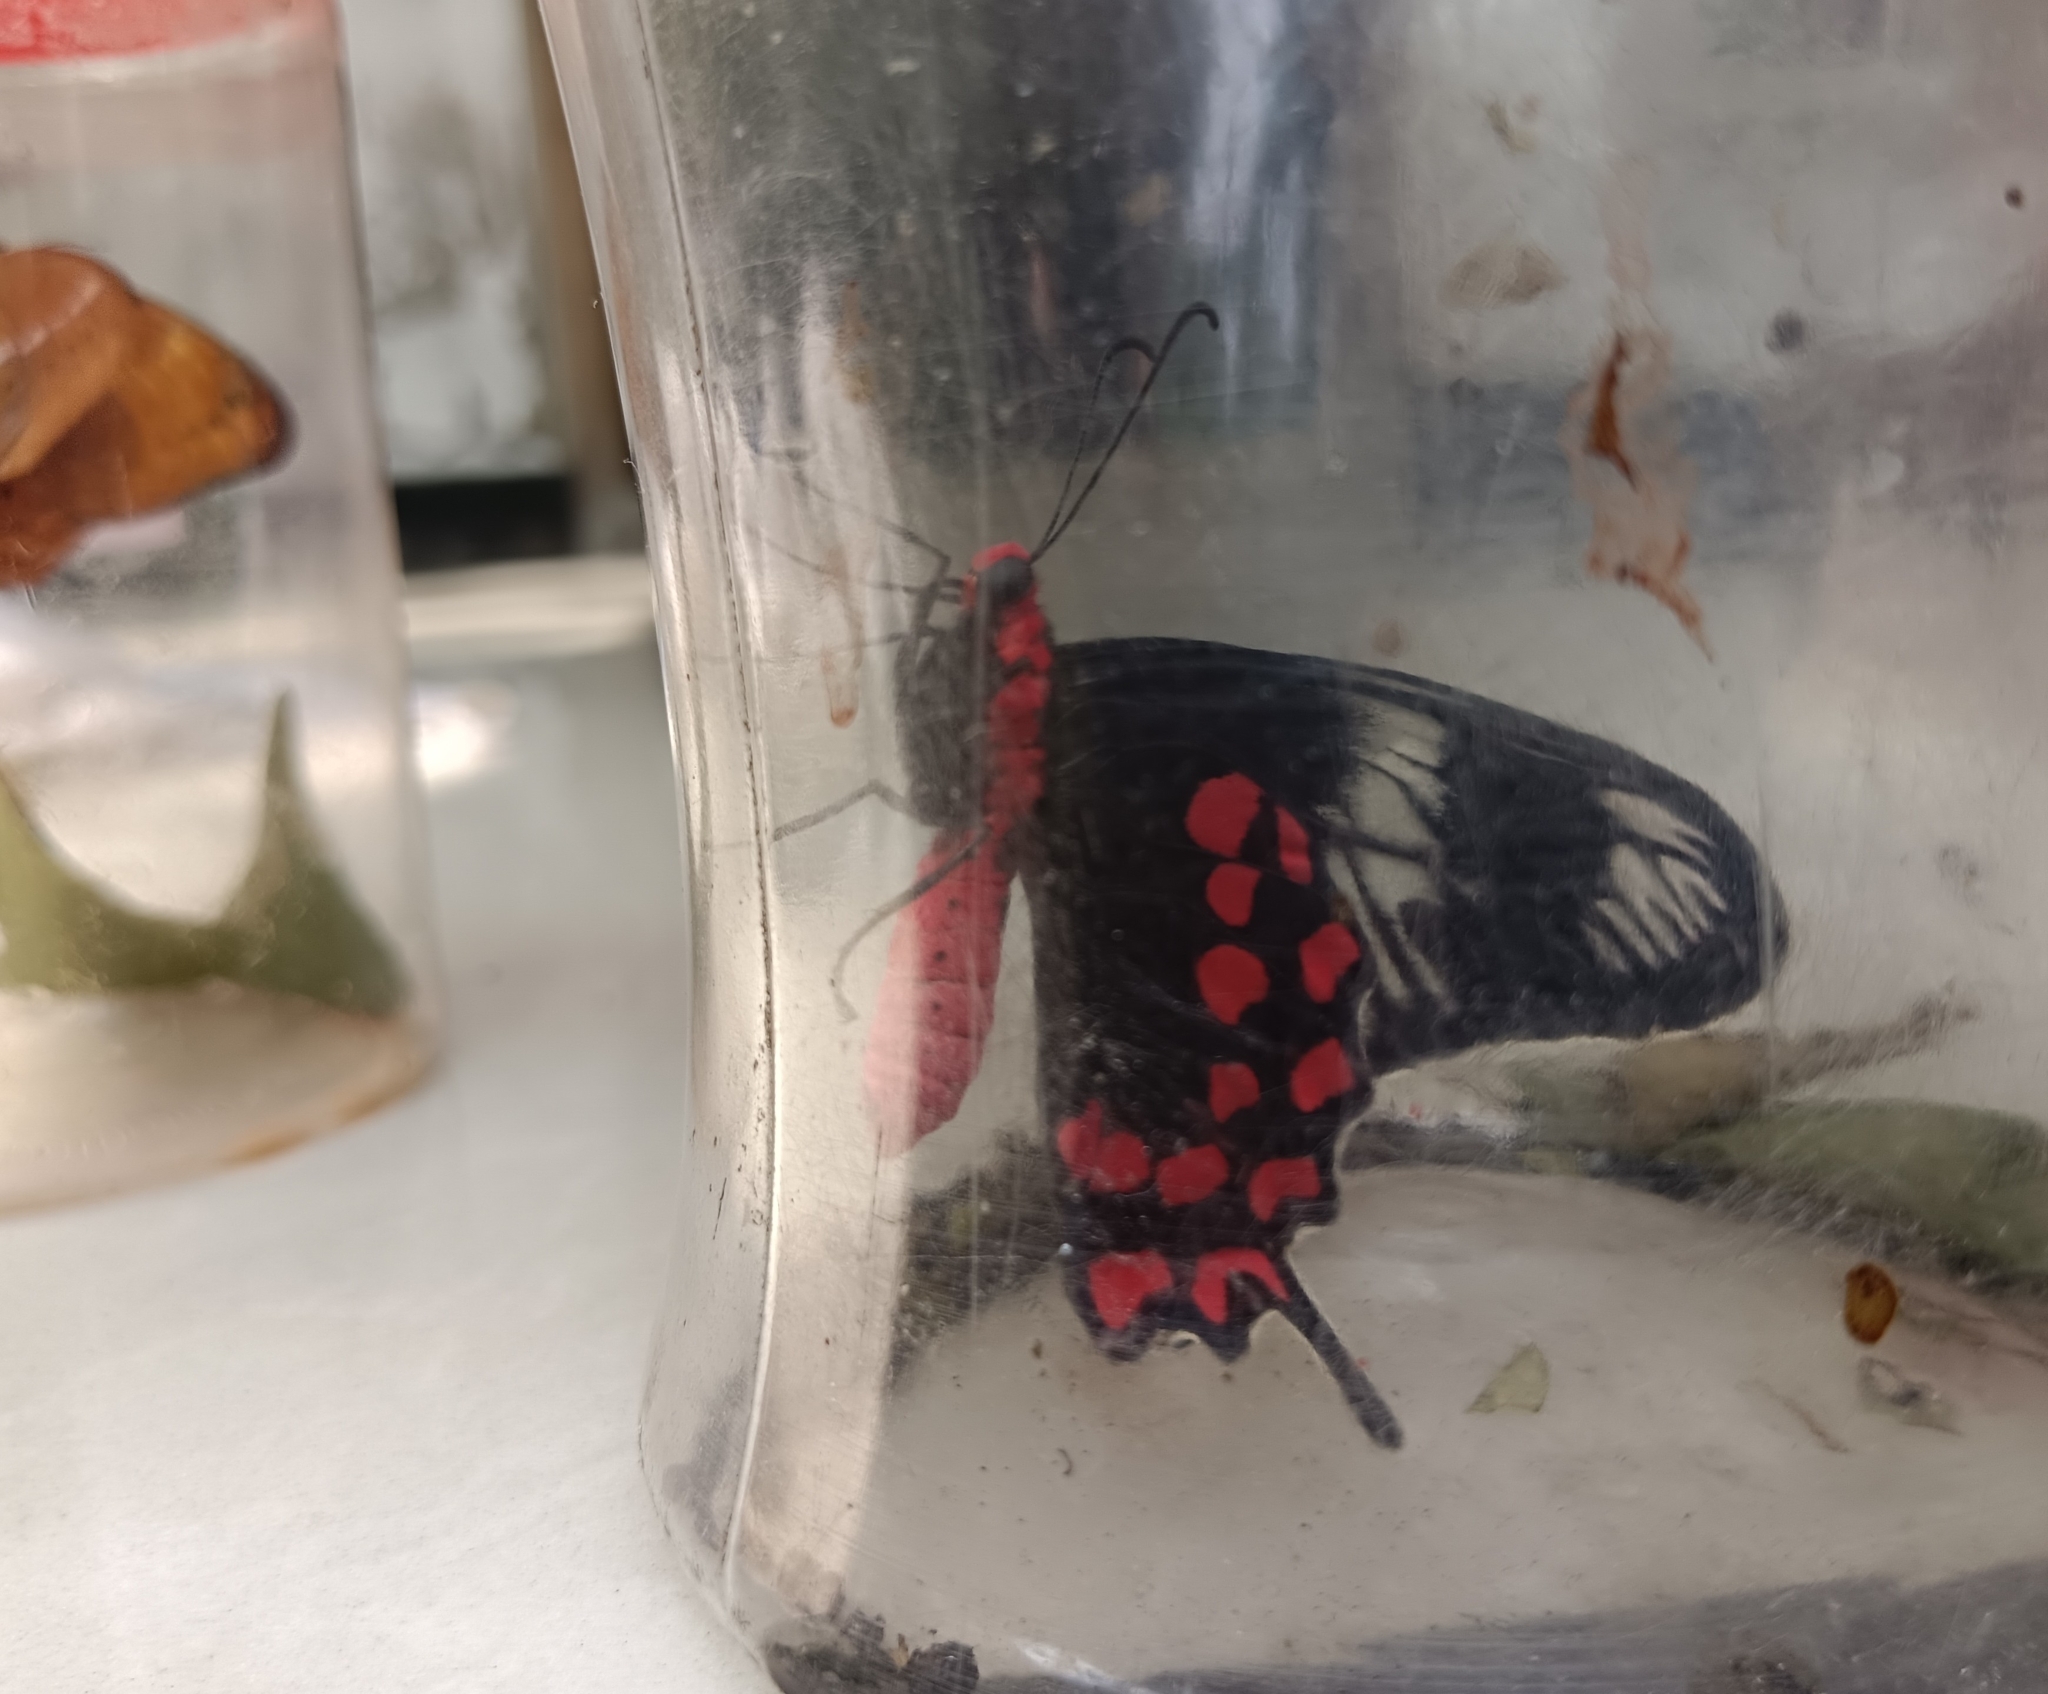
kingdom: Animalia
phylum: Arthropoda
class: Insecta
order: Lepidoptera
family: Papilionidae
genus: Pachliopta
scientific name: Pachliopta hector
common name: Crimson rose
